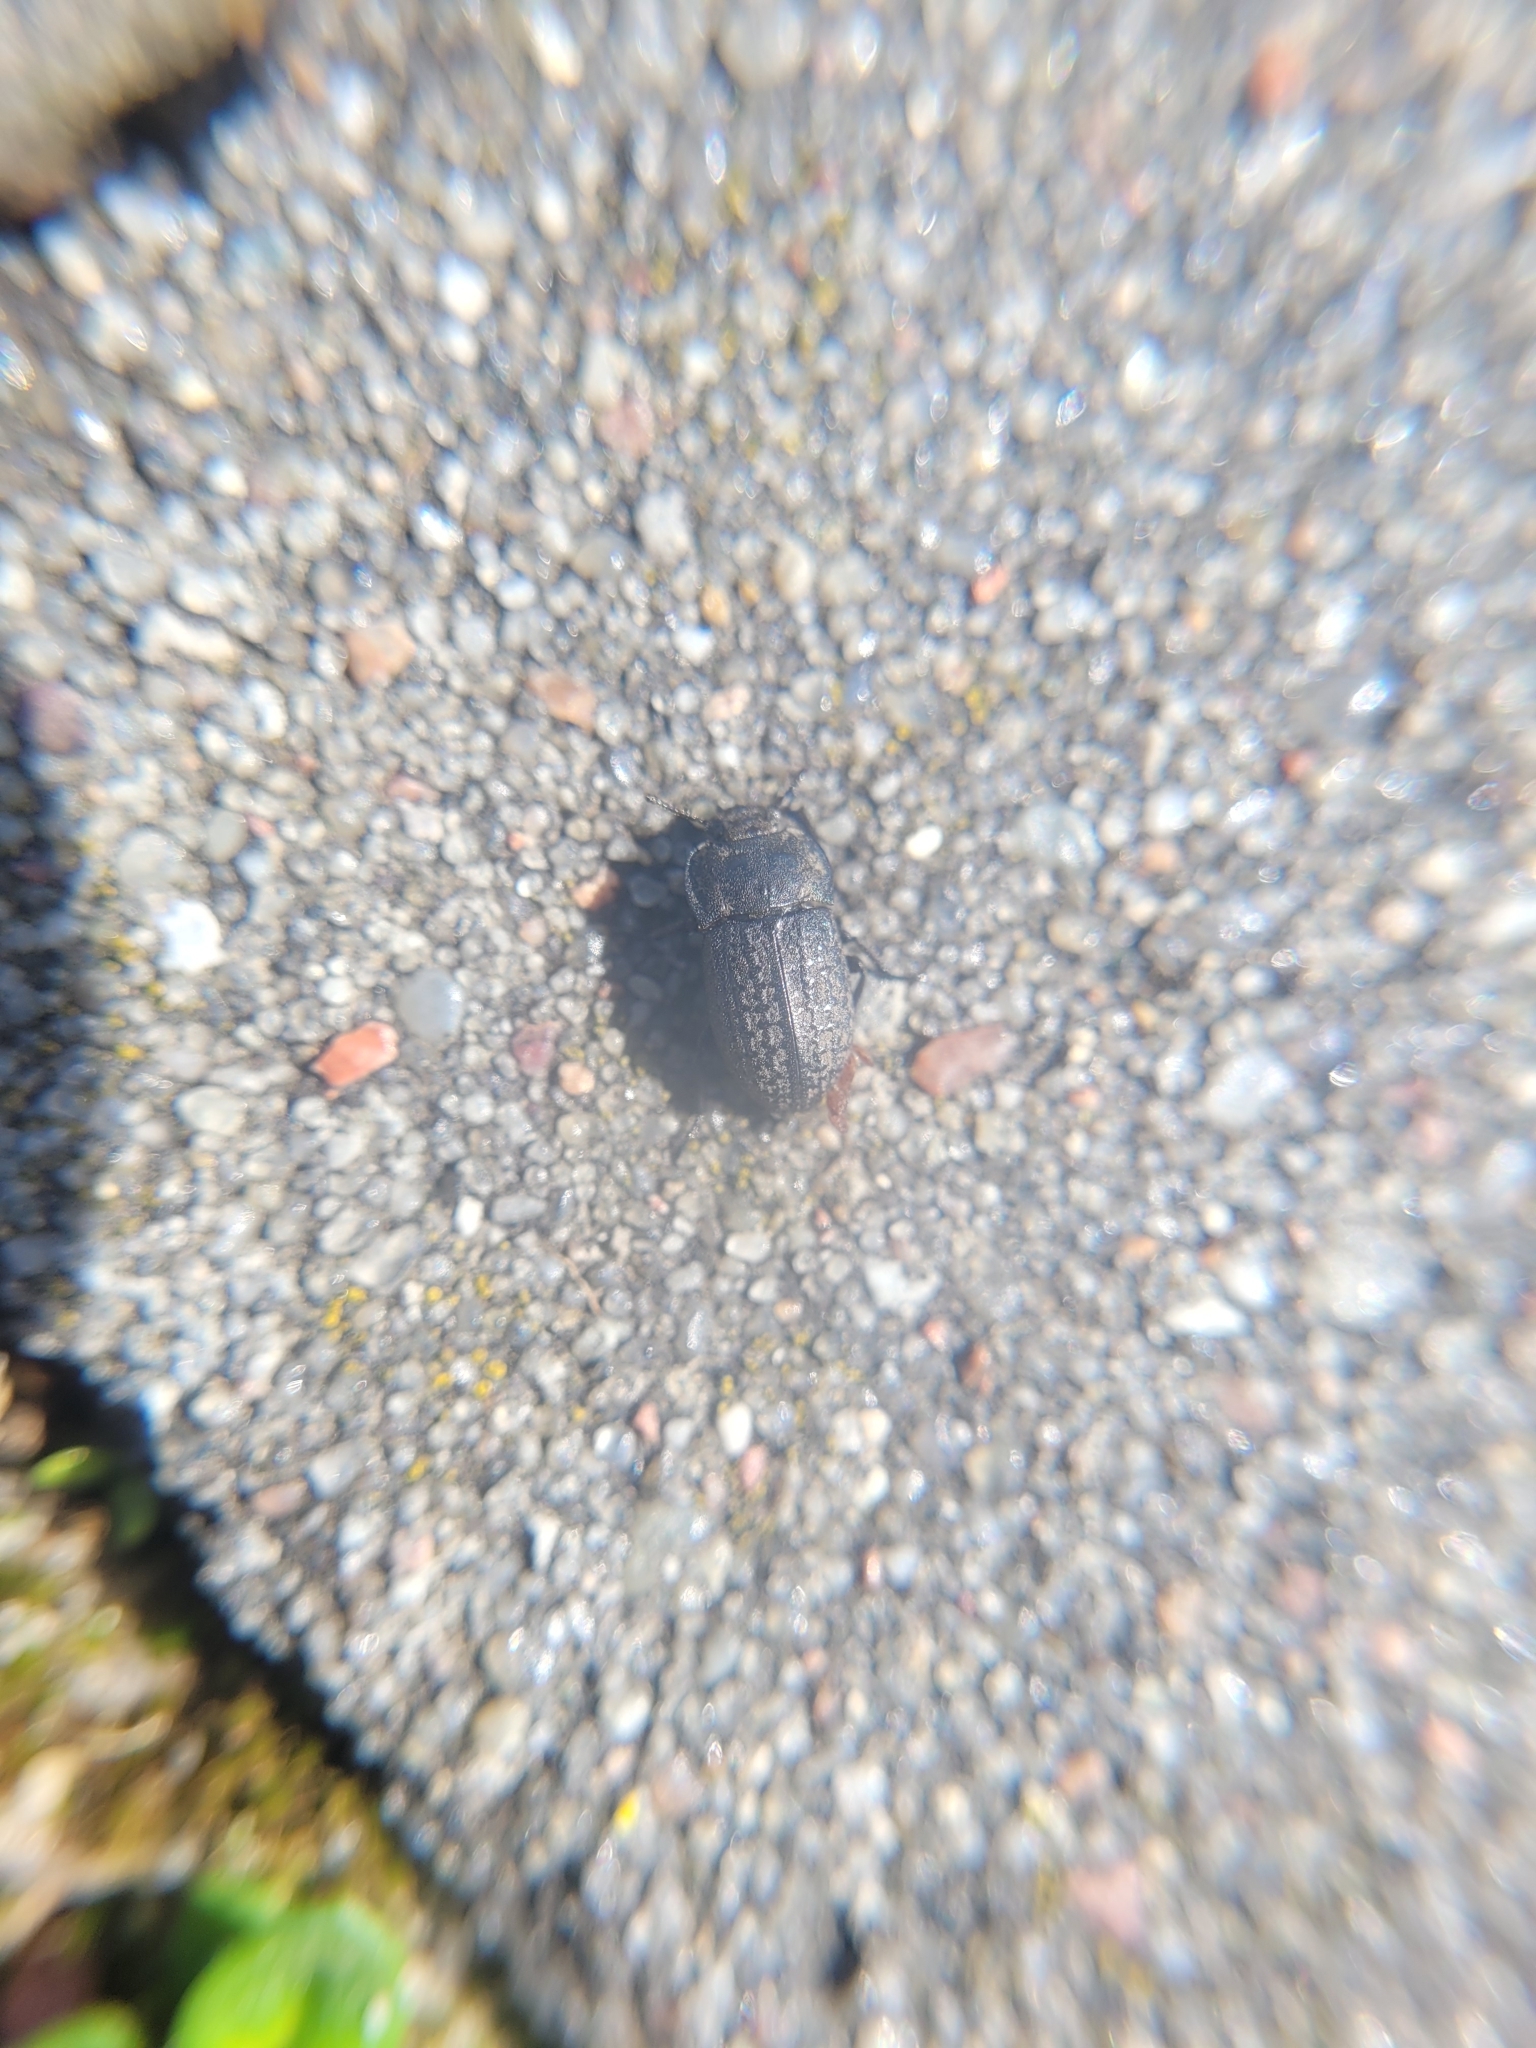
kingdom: Animalia
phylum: Arthropoda
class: Insecta
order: Coleoptera
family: Tenebrionidae
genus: Opatrum
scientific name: Opatrum sabulosum
